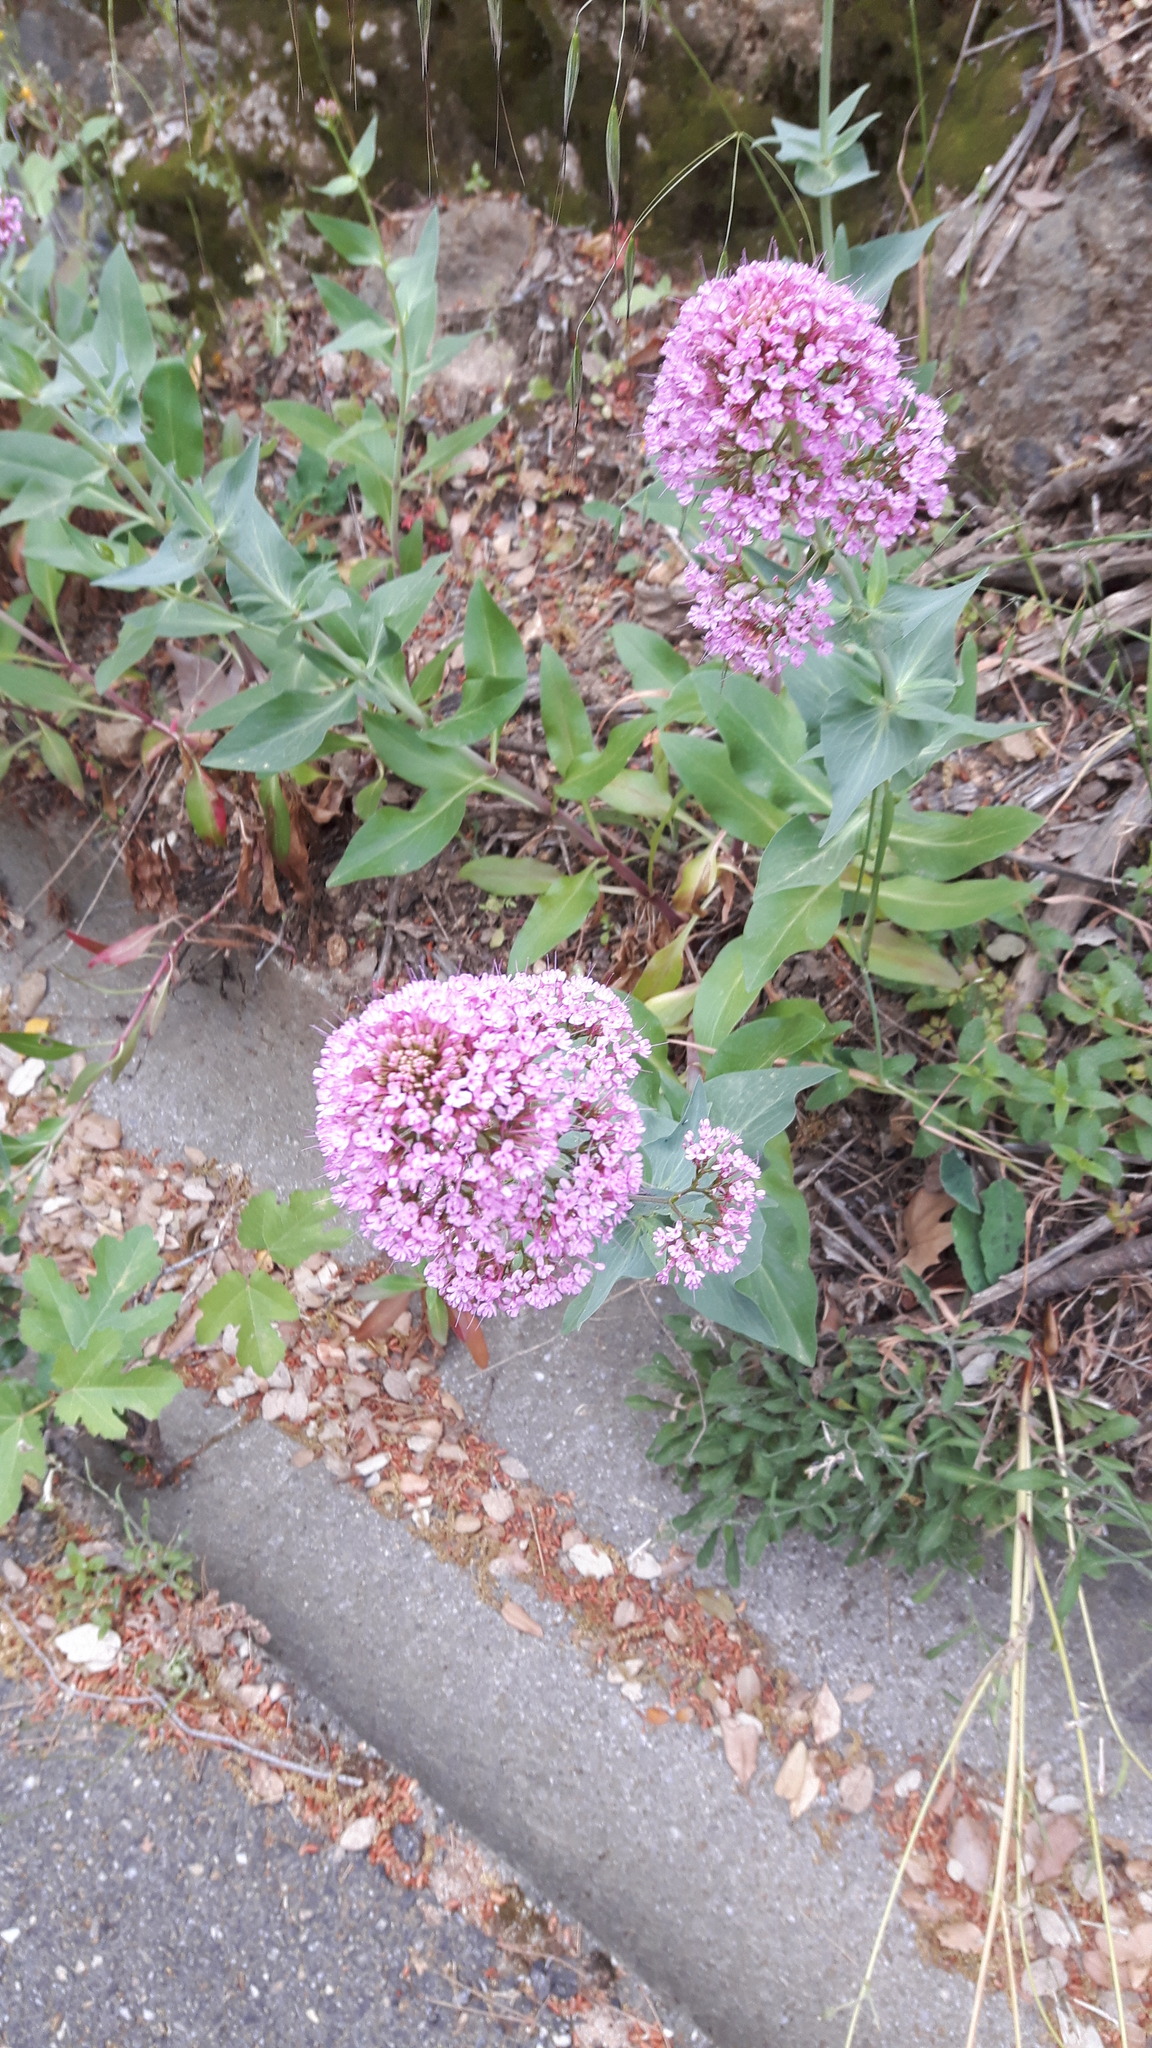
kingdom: Plantae
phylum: Tracheophyta
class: Magnoliopsida
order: Dipsacales
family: Caprifoliaceae
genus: Centranthus
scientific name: Centranthus ruber
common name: Red valerian
